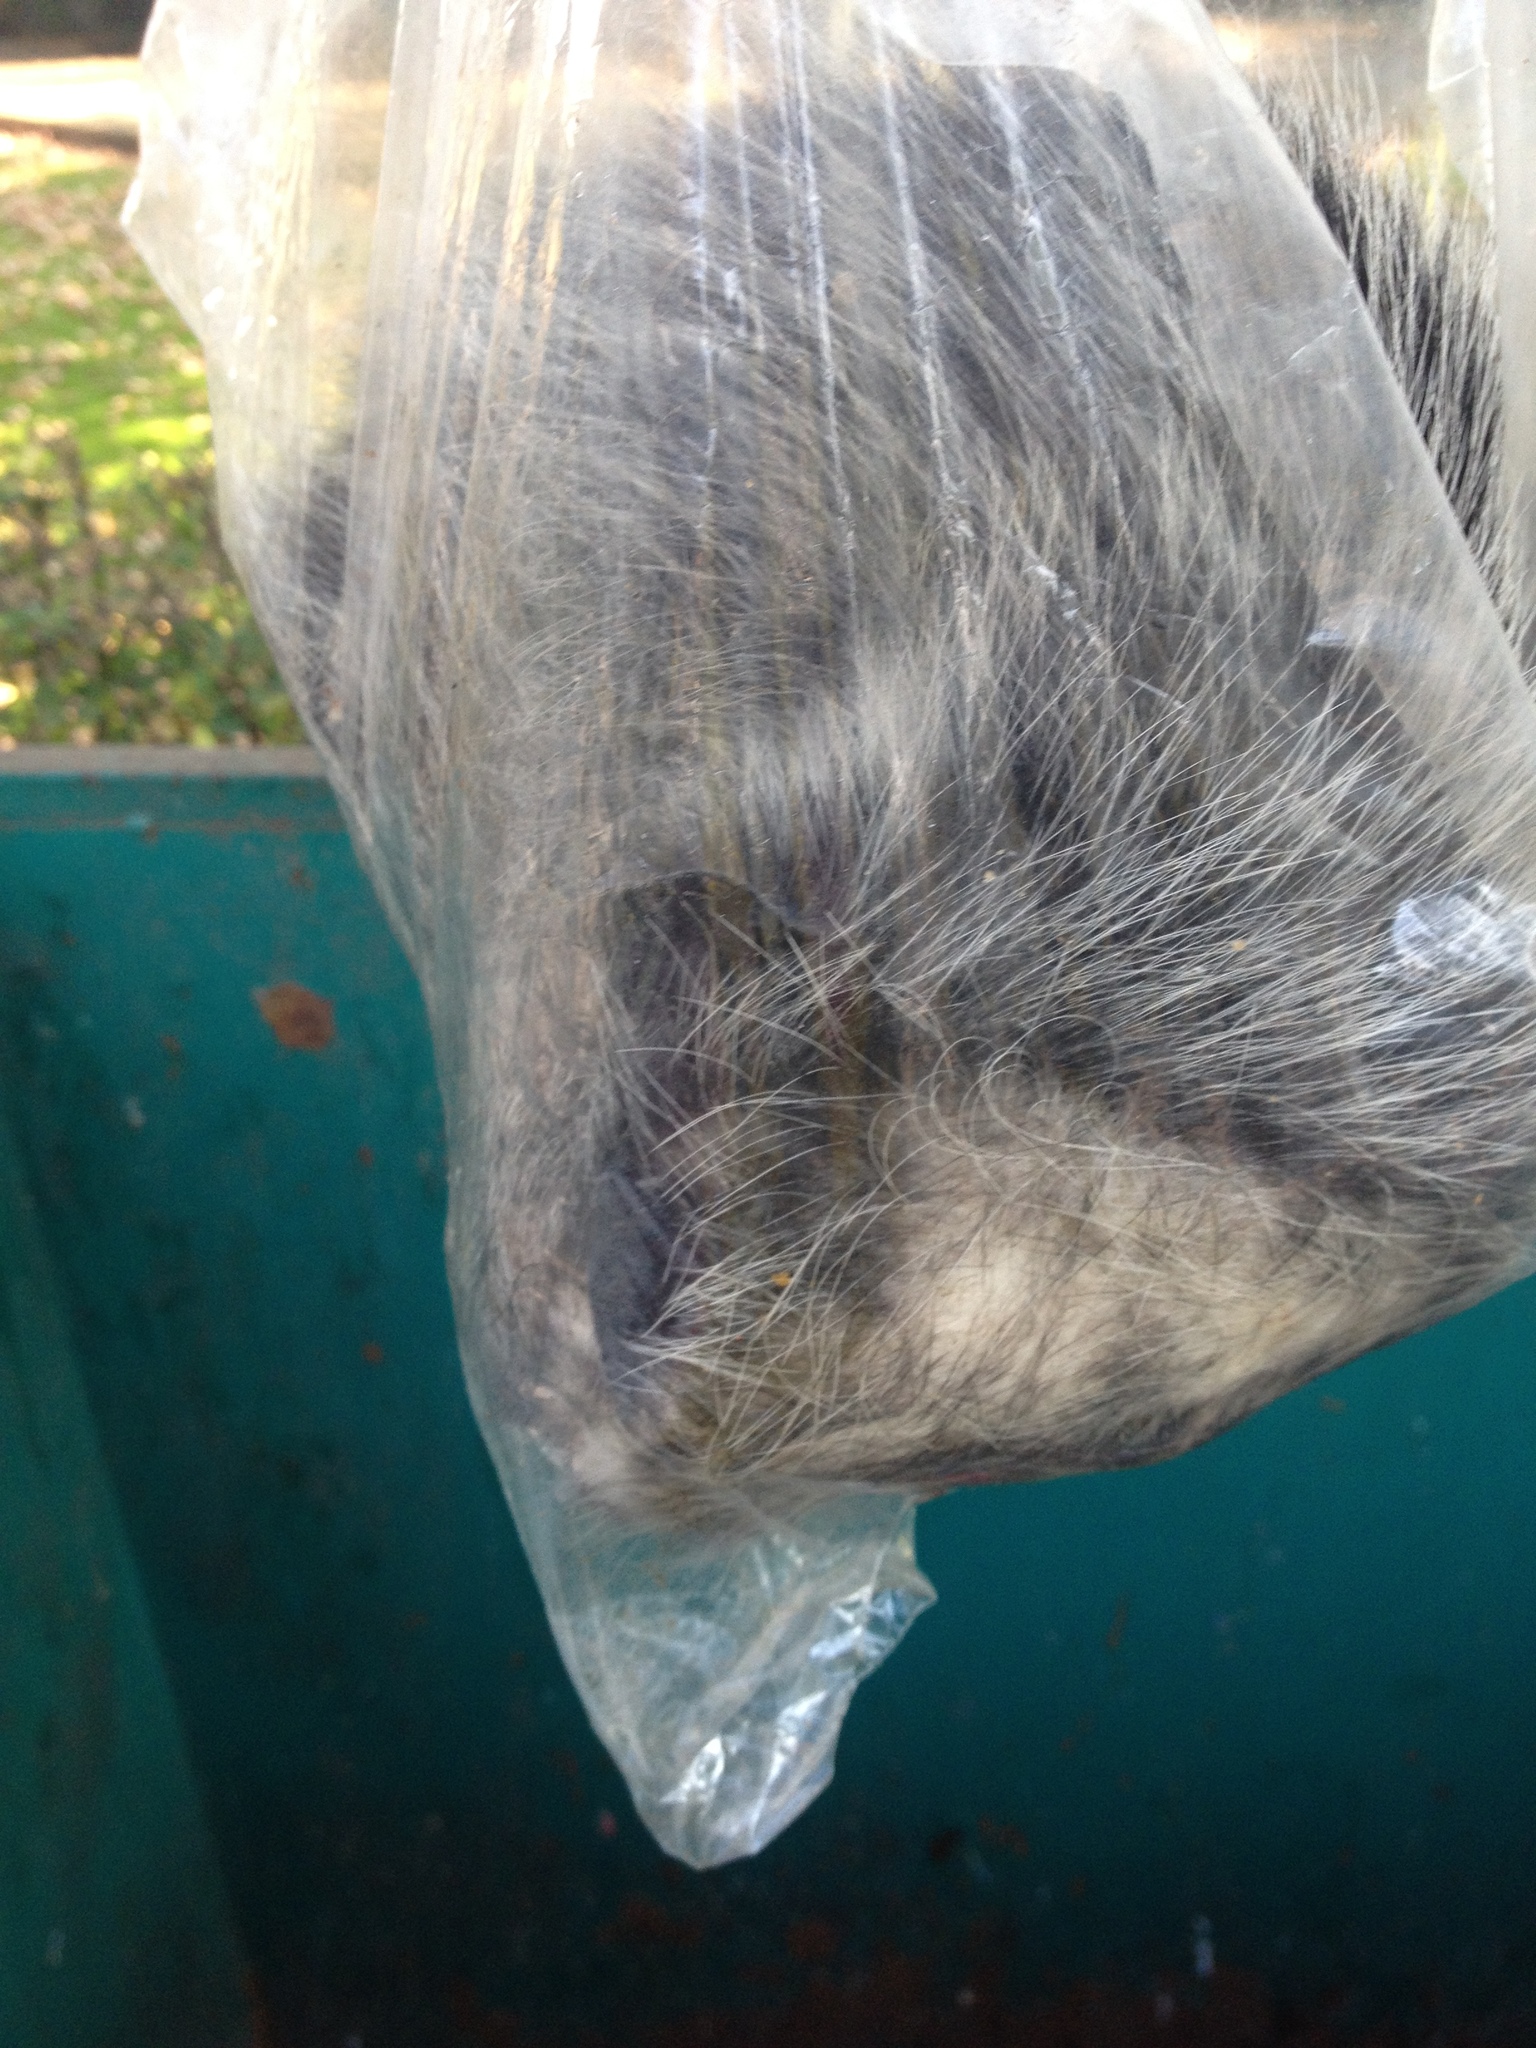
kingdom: Animalia
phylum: Chordata
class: Mammalia
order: Didelphimorphia
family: Didelphidae
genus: Didelphis
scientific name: Didelphis virginiana
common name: Virginia opossum
